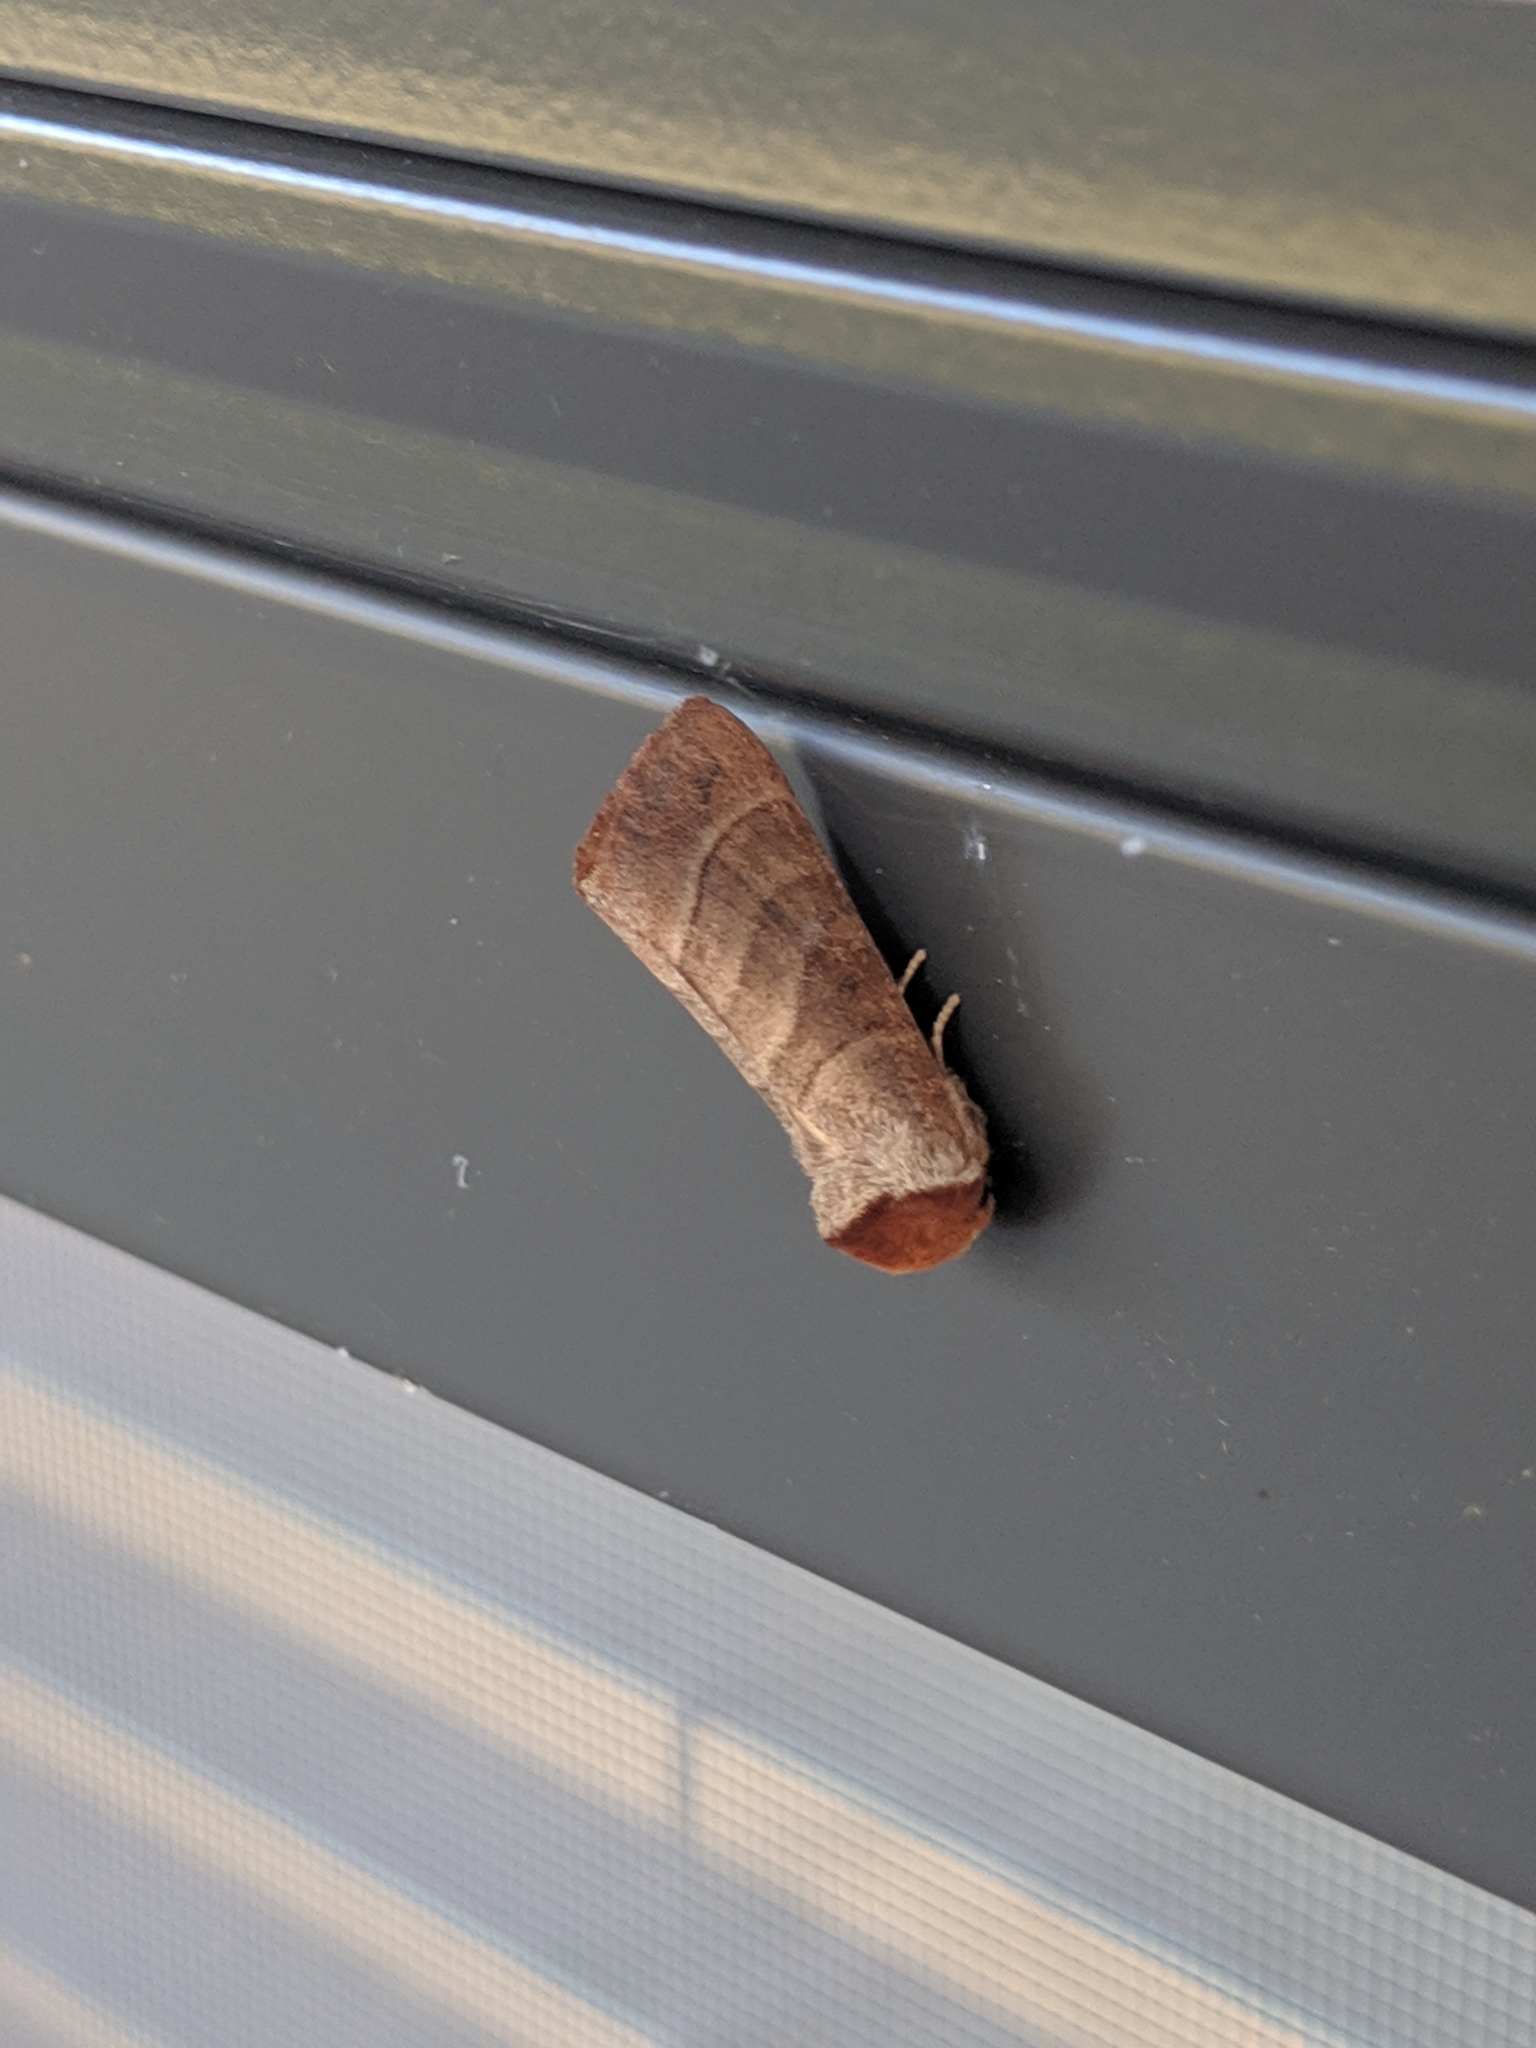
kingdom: Animalia
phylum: Arthropoda
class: Insecta
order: Lepidoptera
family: Notodontidae
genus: Datana
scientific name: Datana integerrima
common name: Walnut caterpillar
